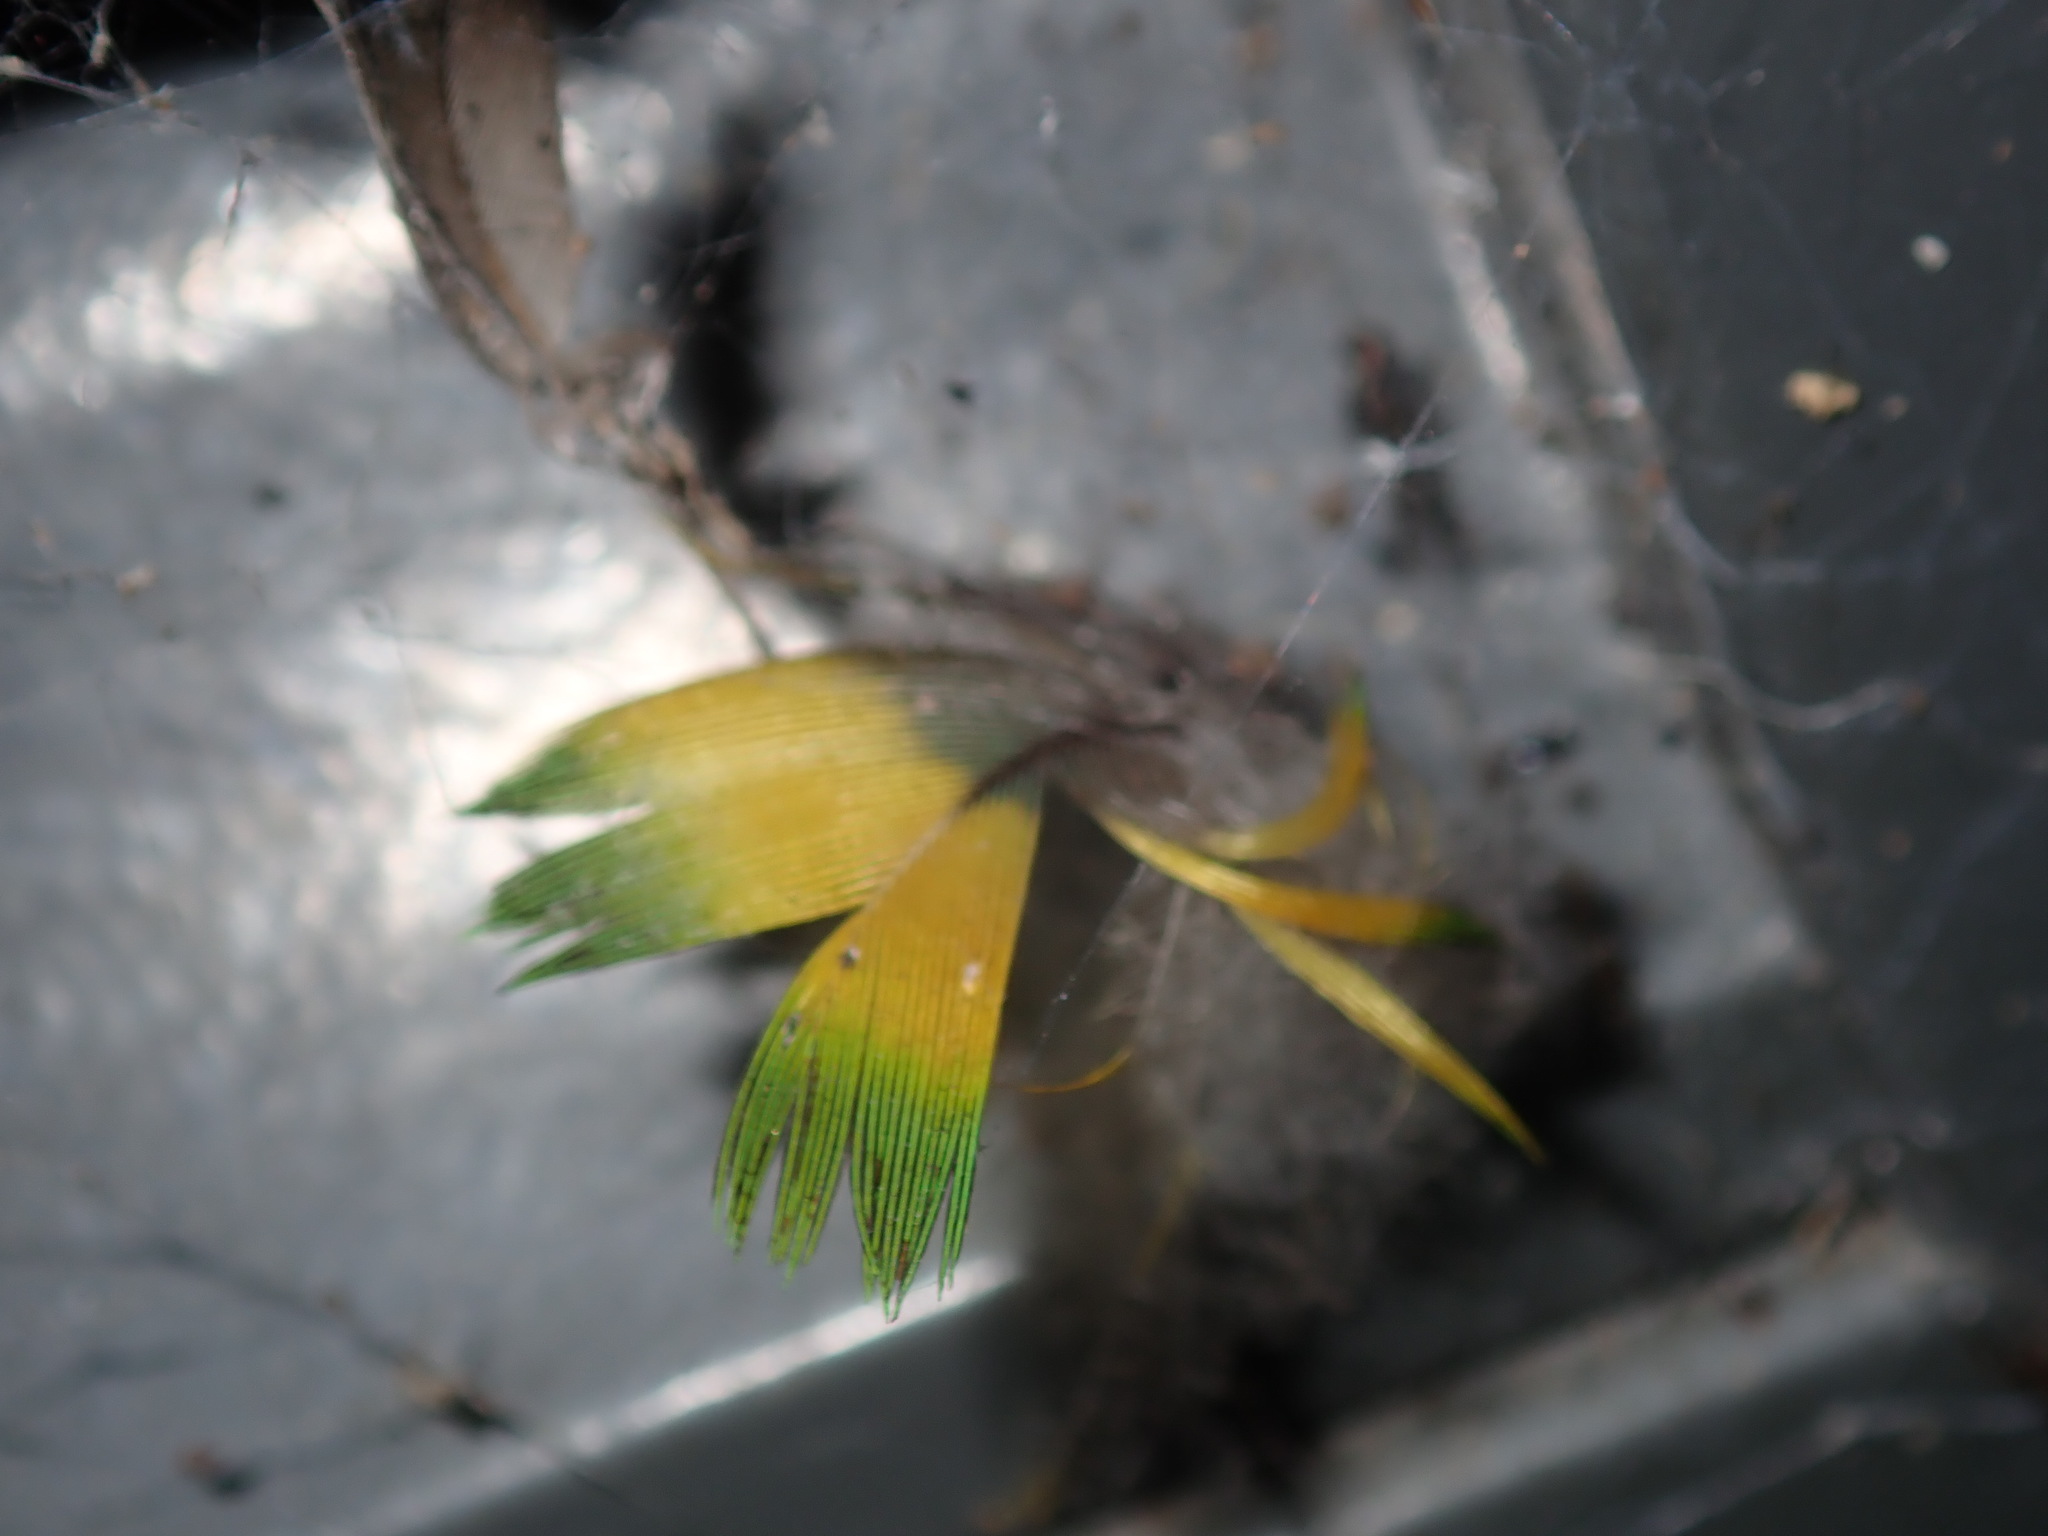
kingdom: Animalia
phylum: Chordata
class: Aves
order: Psittaciformes
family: Psittacidae
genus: Trichoglossus
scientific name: Trichoglossus haematodus
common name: Coconut lorikeet
